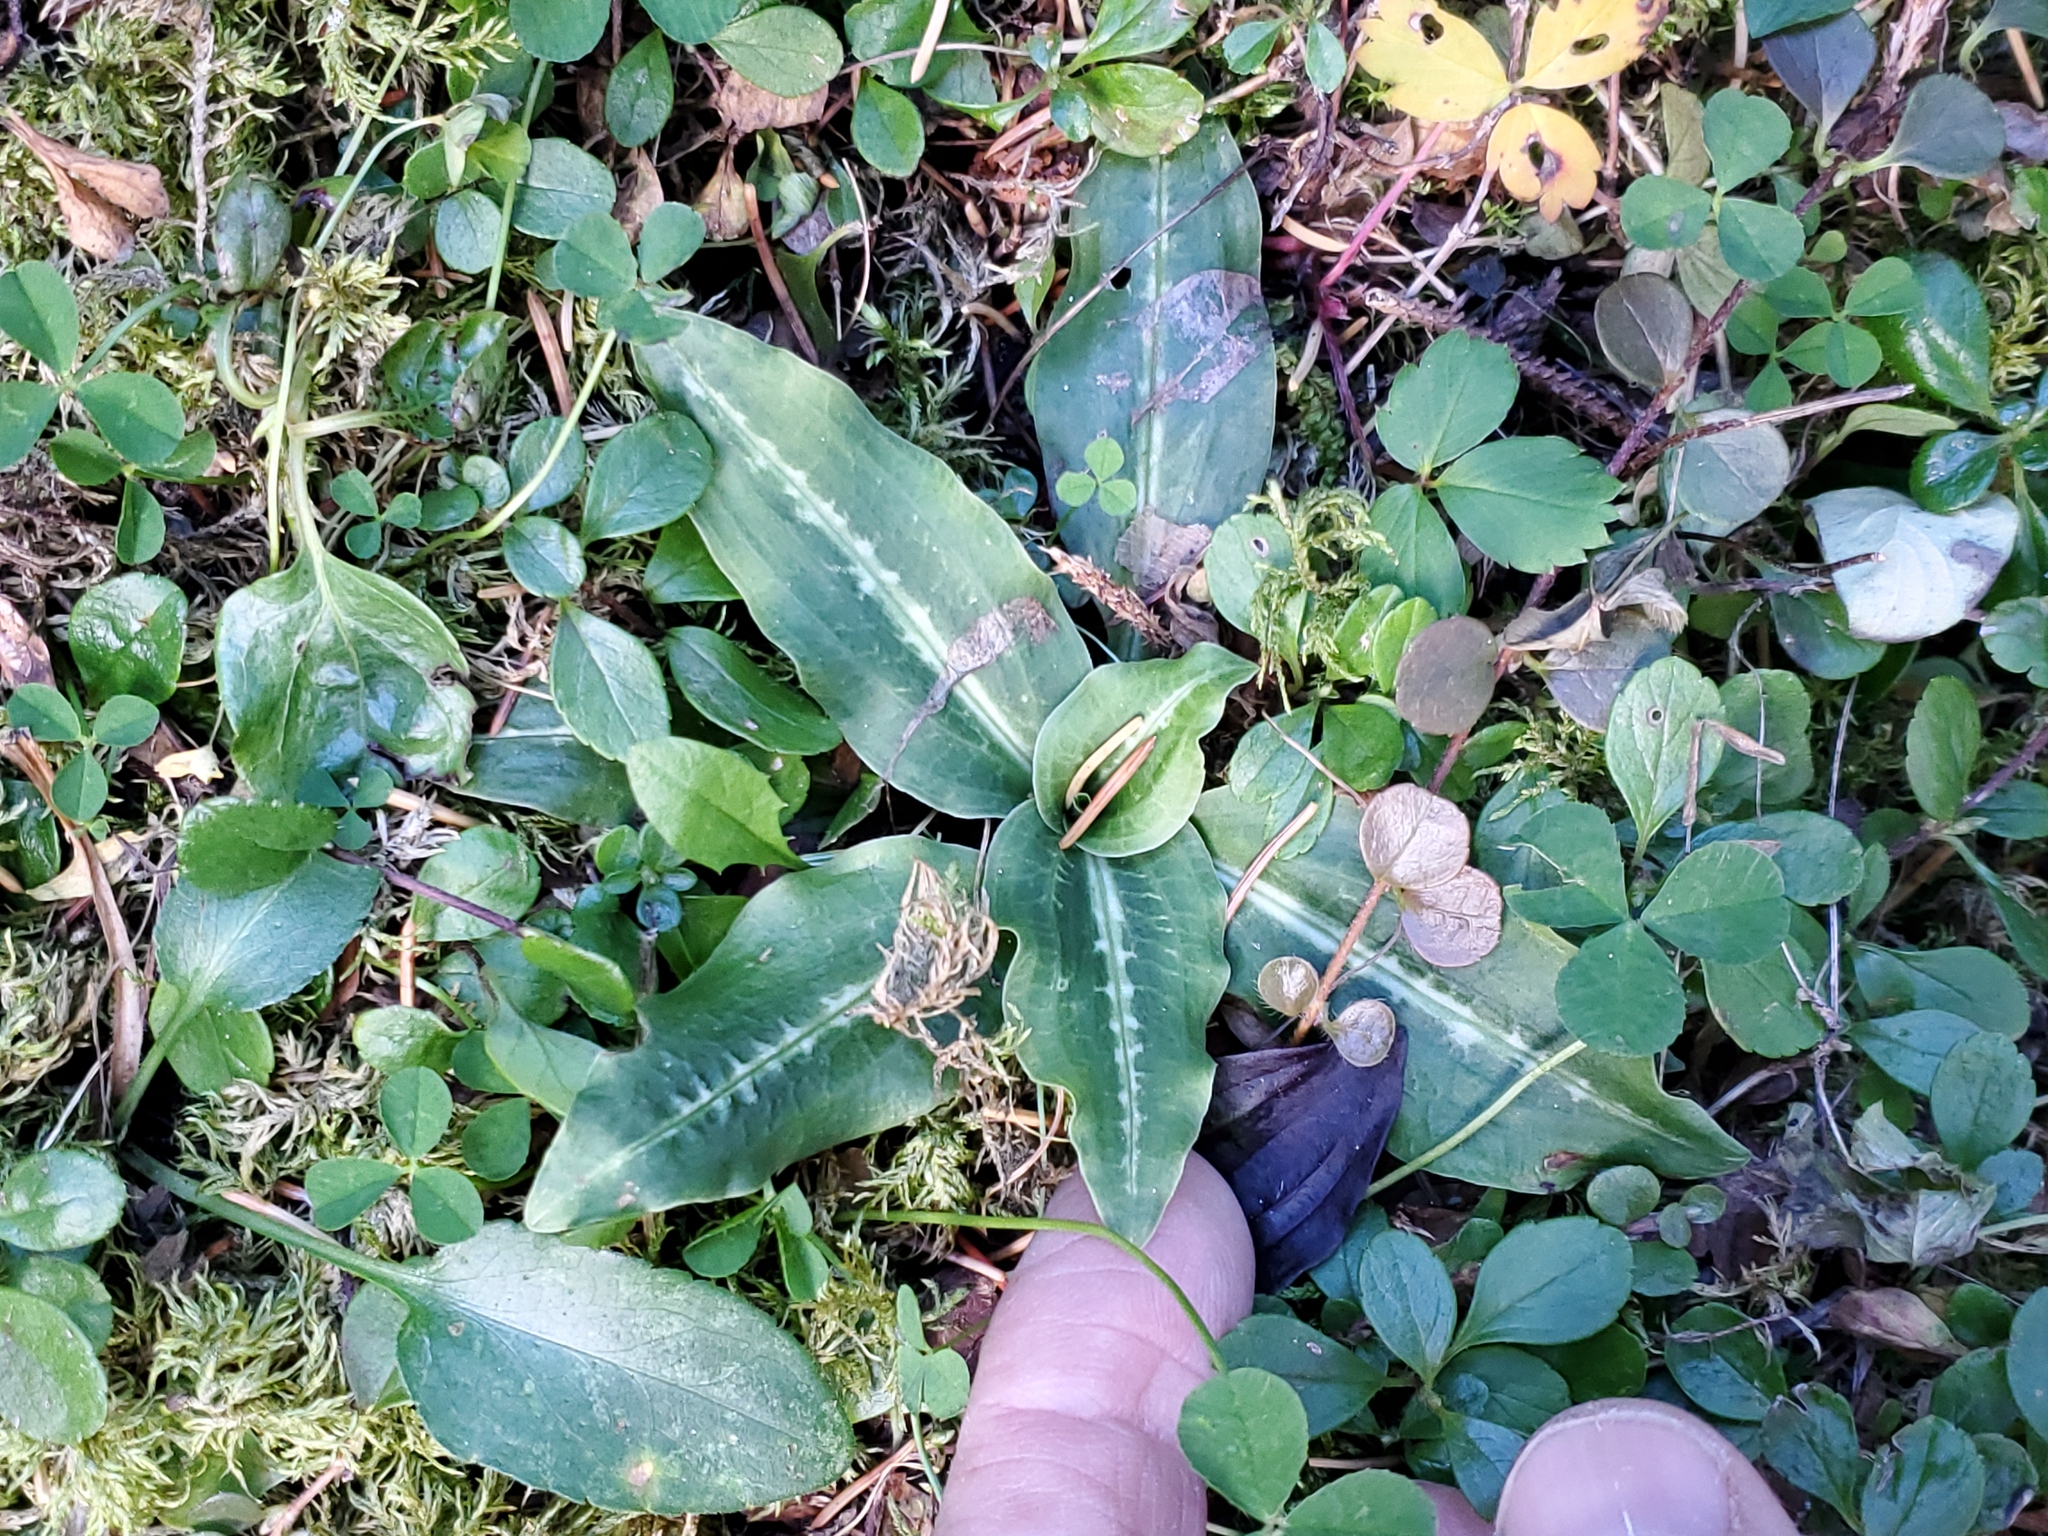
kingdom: Plantae
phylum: Tracheophyta
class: Liliopsida
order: Asparagales
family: Orchidaceae
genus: Goodyera
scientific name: Goodyera oblongifolia
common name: Giant rattlesnake-plantain
